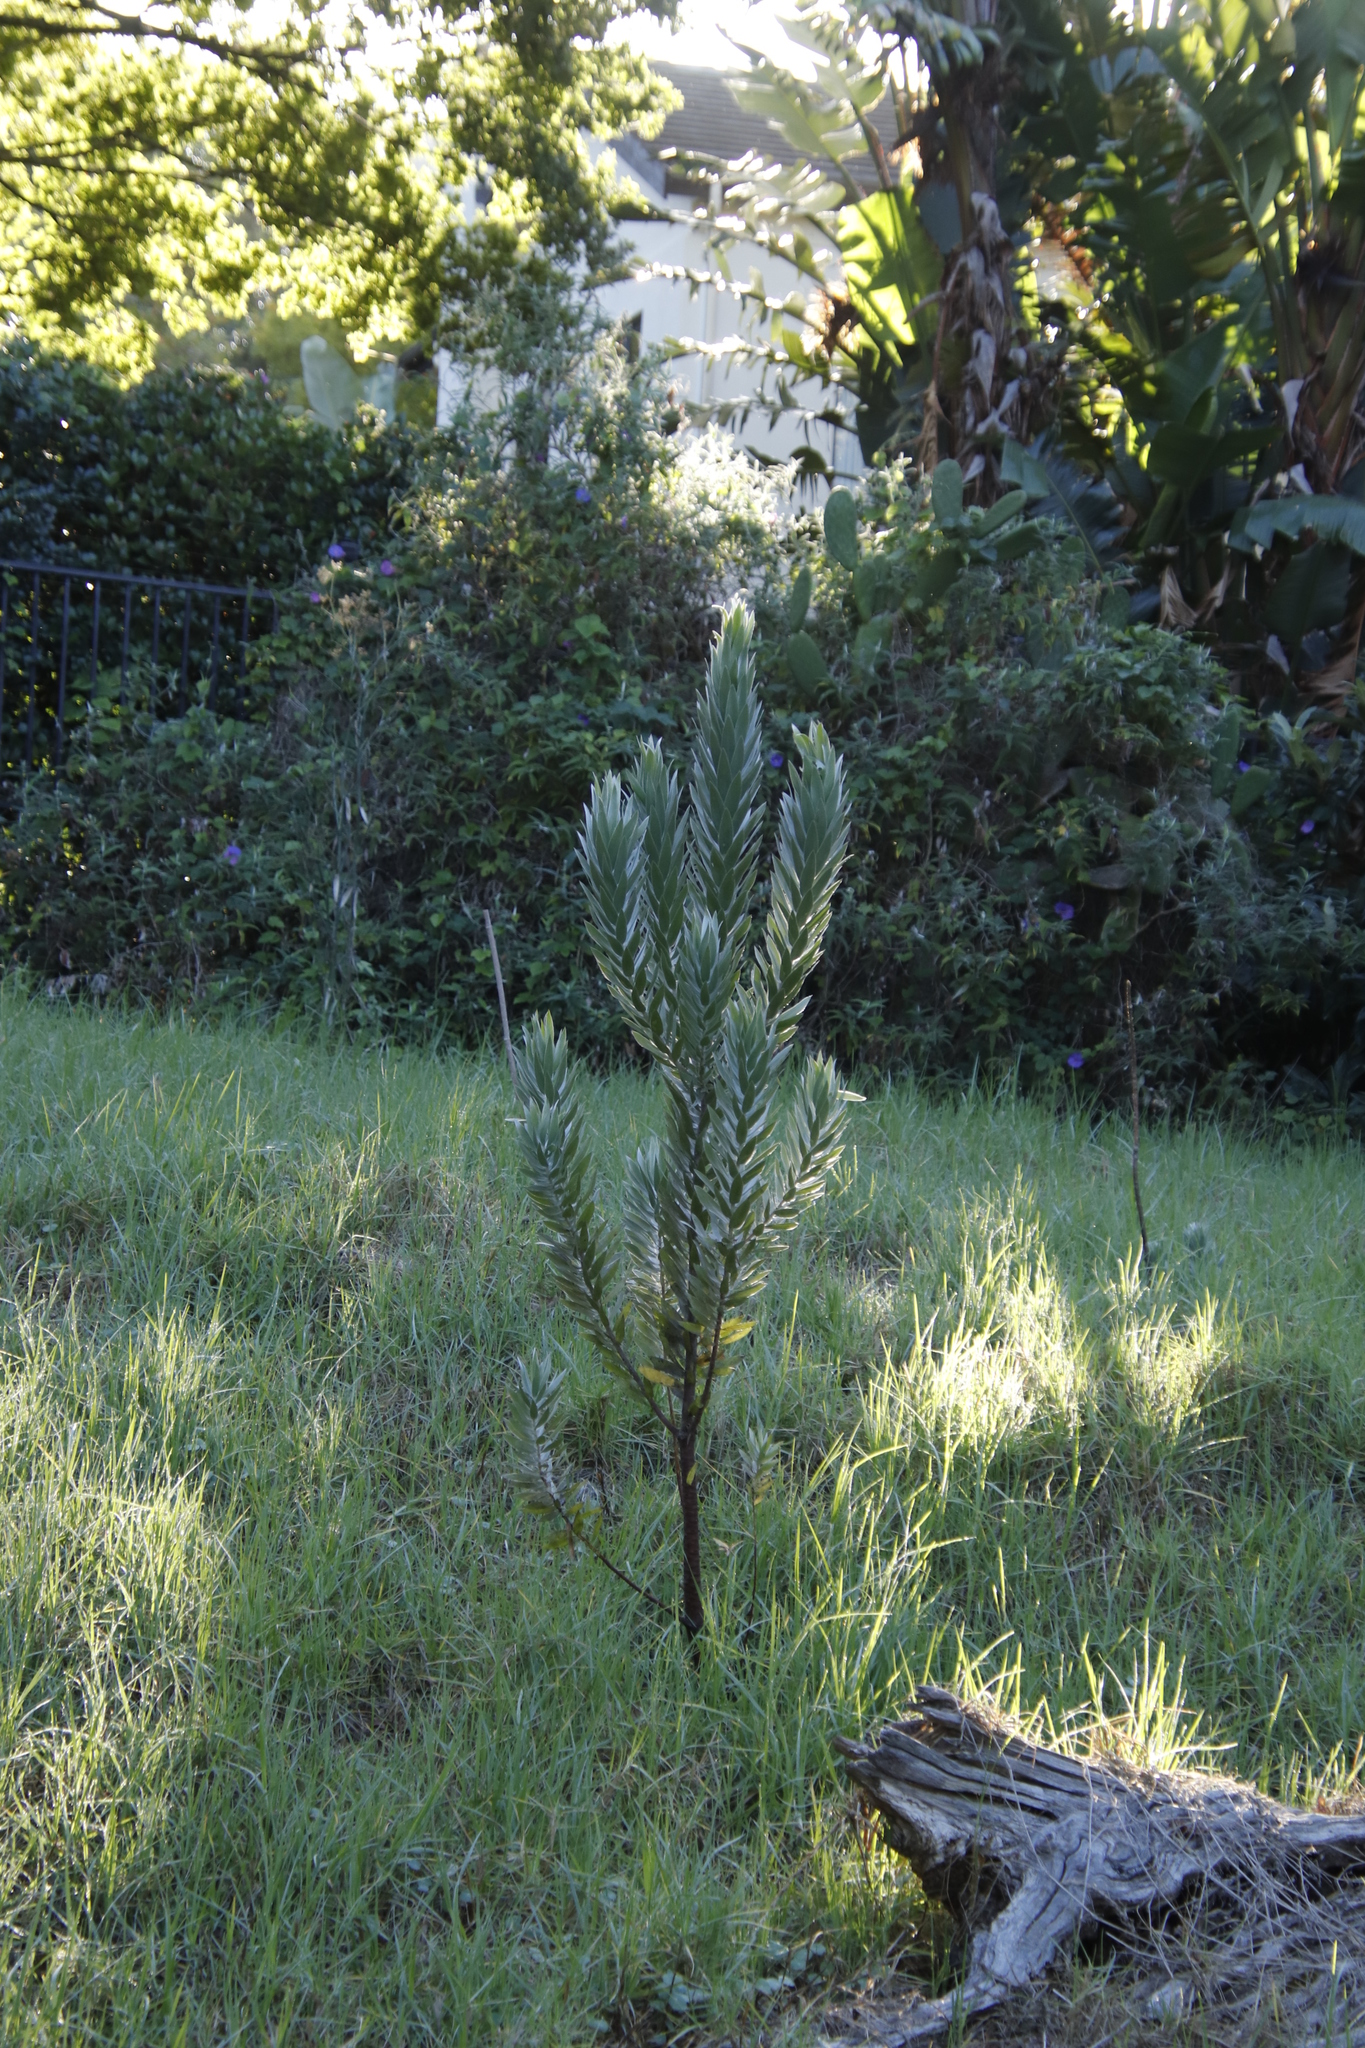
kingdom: Plantae
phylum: Tracheophyta
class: Magnoliopsida
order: Proteales
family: Proteaceae
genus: Leucadendron
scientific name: Leucadendron argenteum
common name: Cape silver tree
